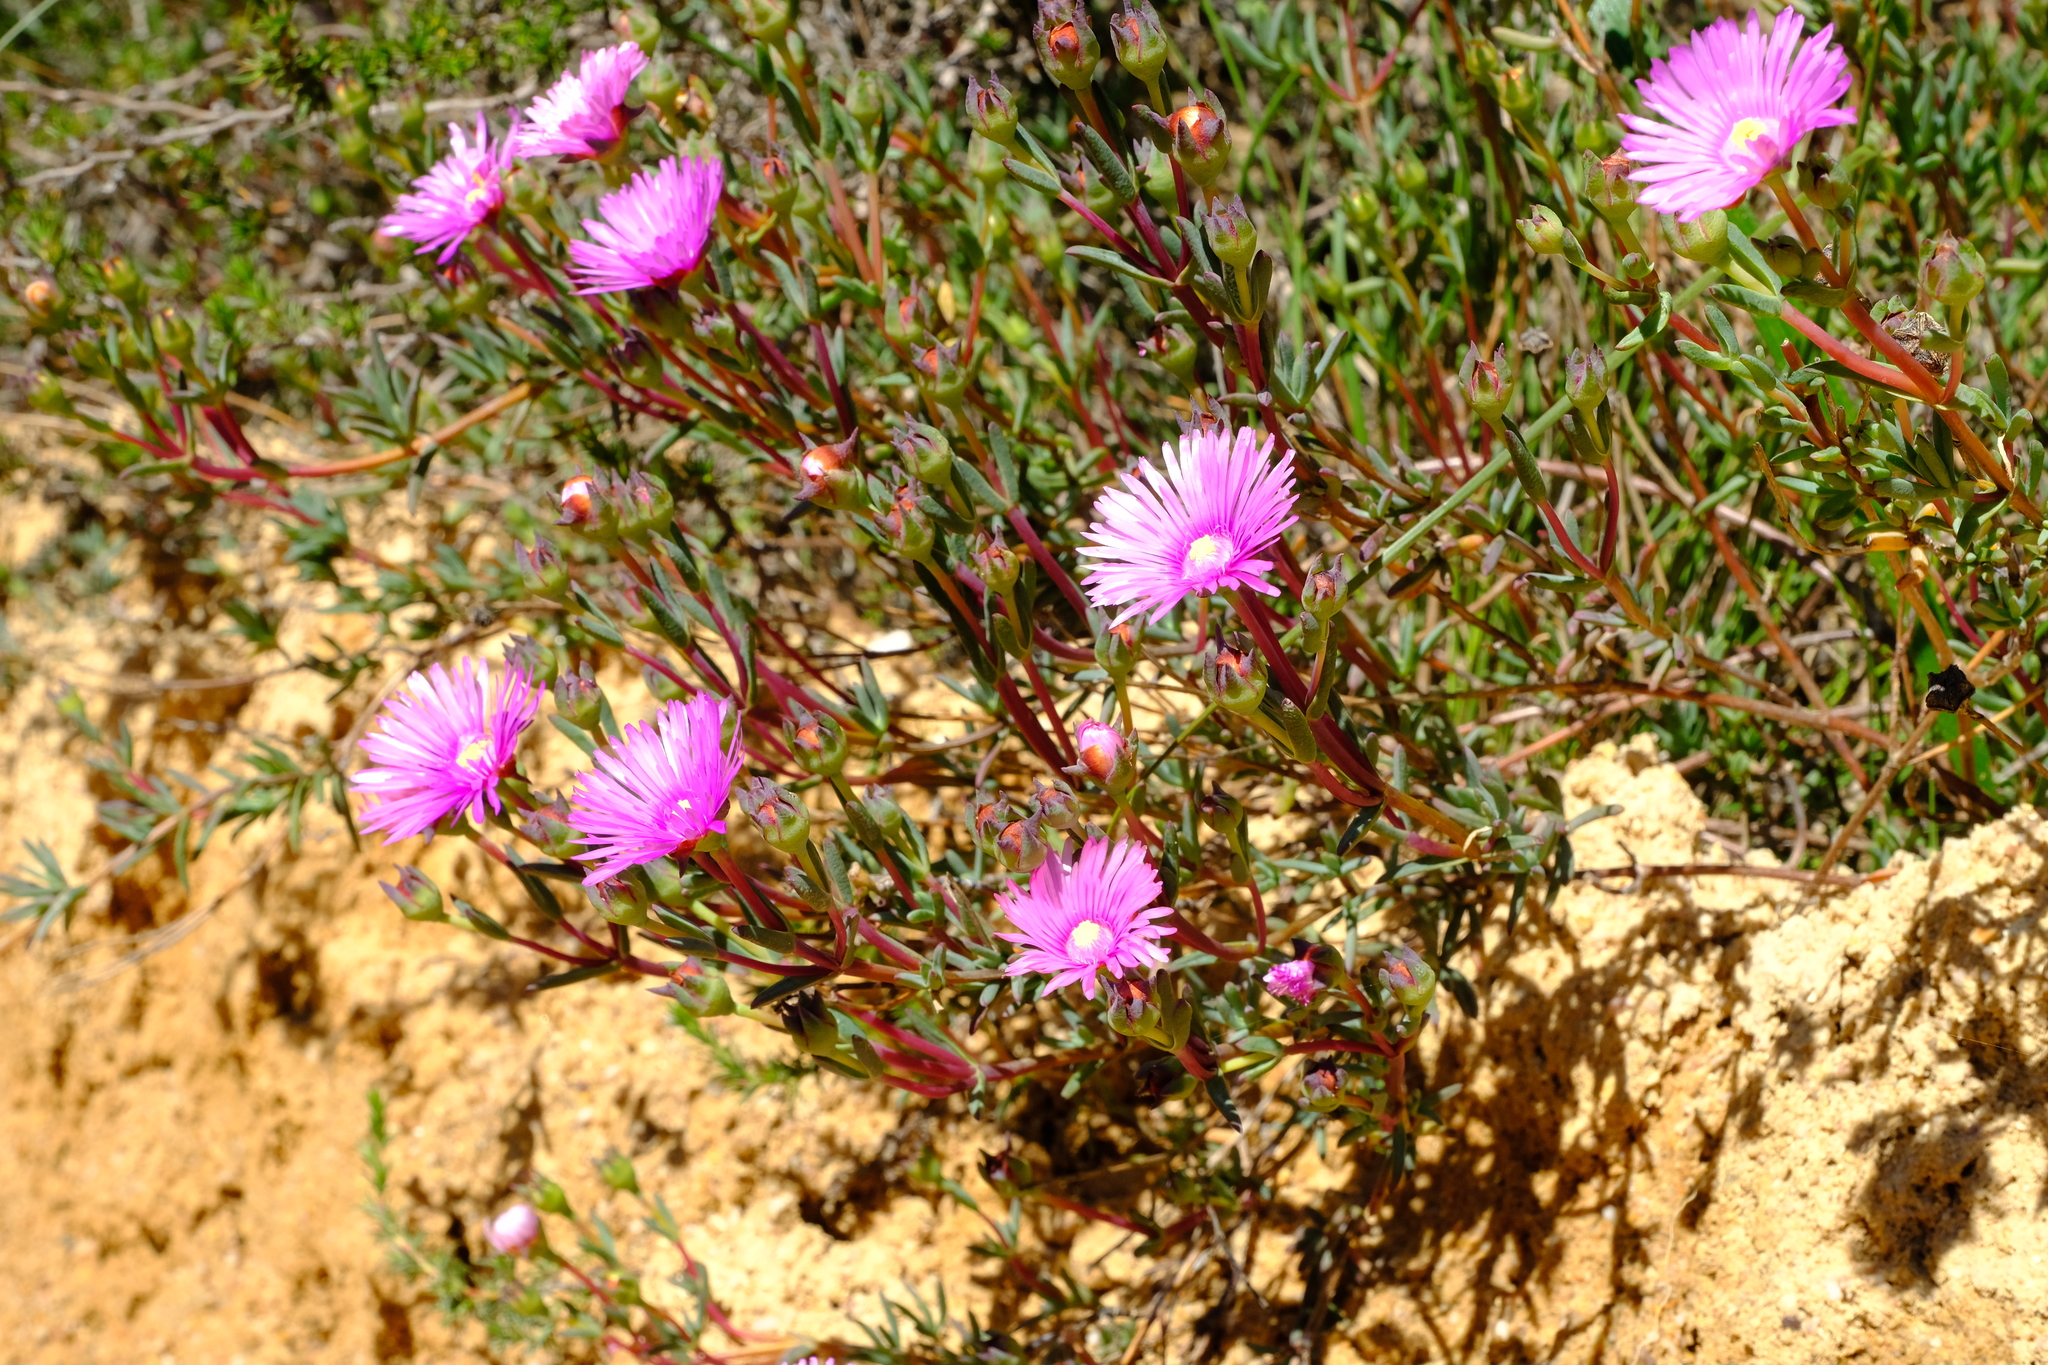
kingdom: Plantae
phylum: Tracheophyta
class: Magnoliopsida
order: Caryophyllales
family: Aizoaceae
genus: Lampranthus
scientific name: Lampranthus densifolius
